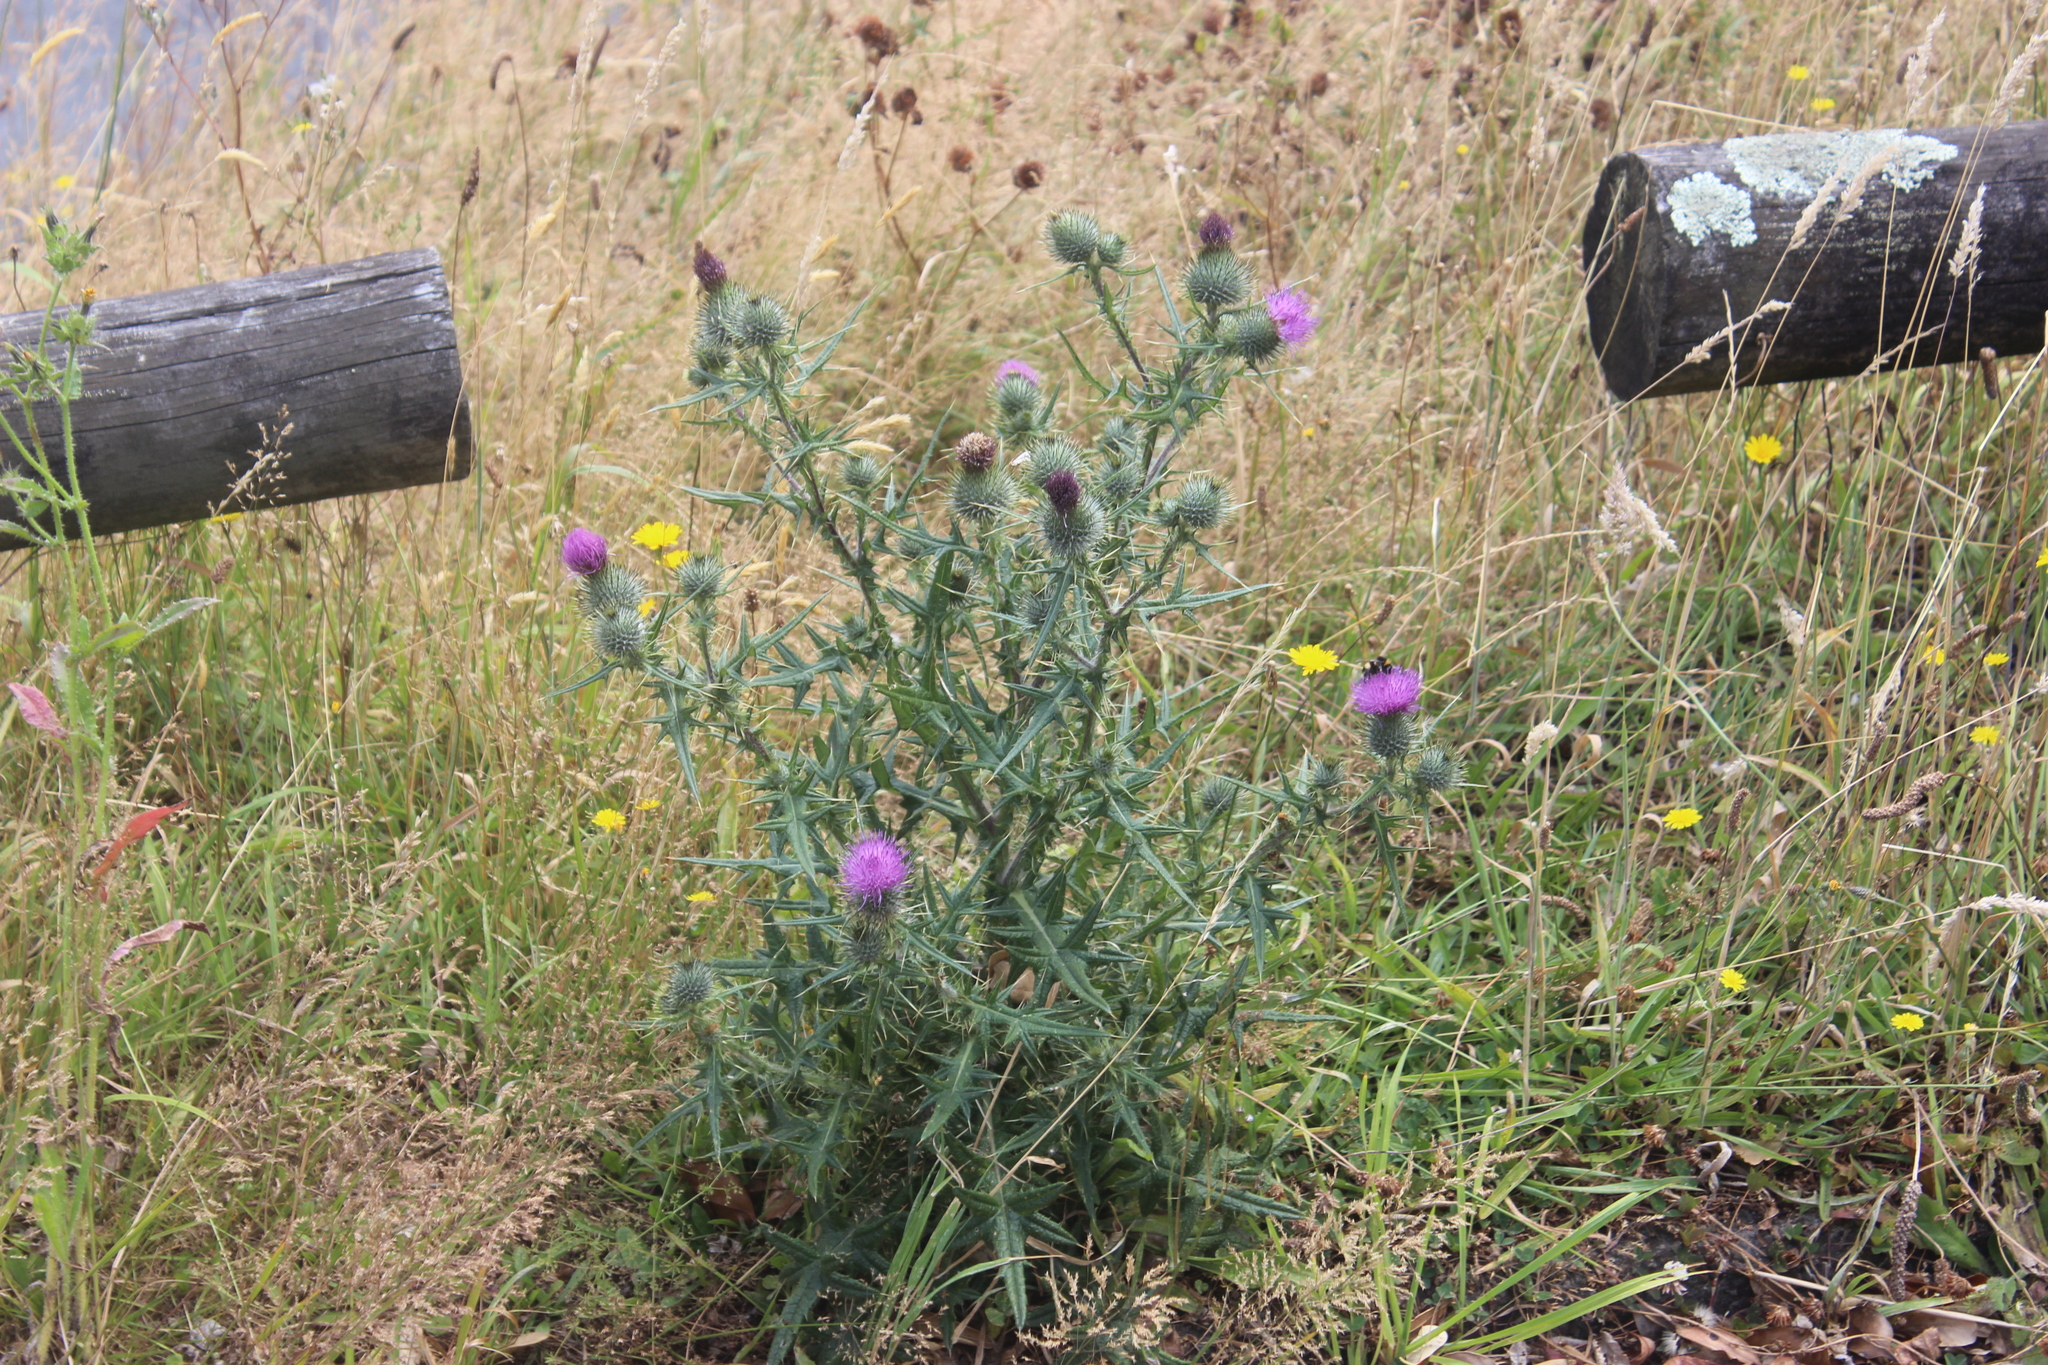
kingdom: Plantae
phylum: Tracheophyta
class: Magnoliopsida
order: Asterales
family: Asteraceae
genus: Cirsium
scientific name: Cirsium vulgare
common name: Bull thistle
